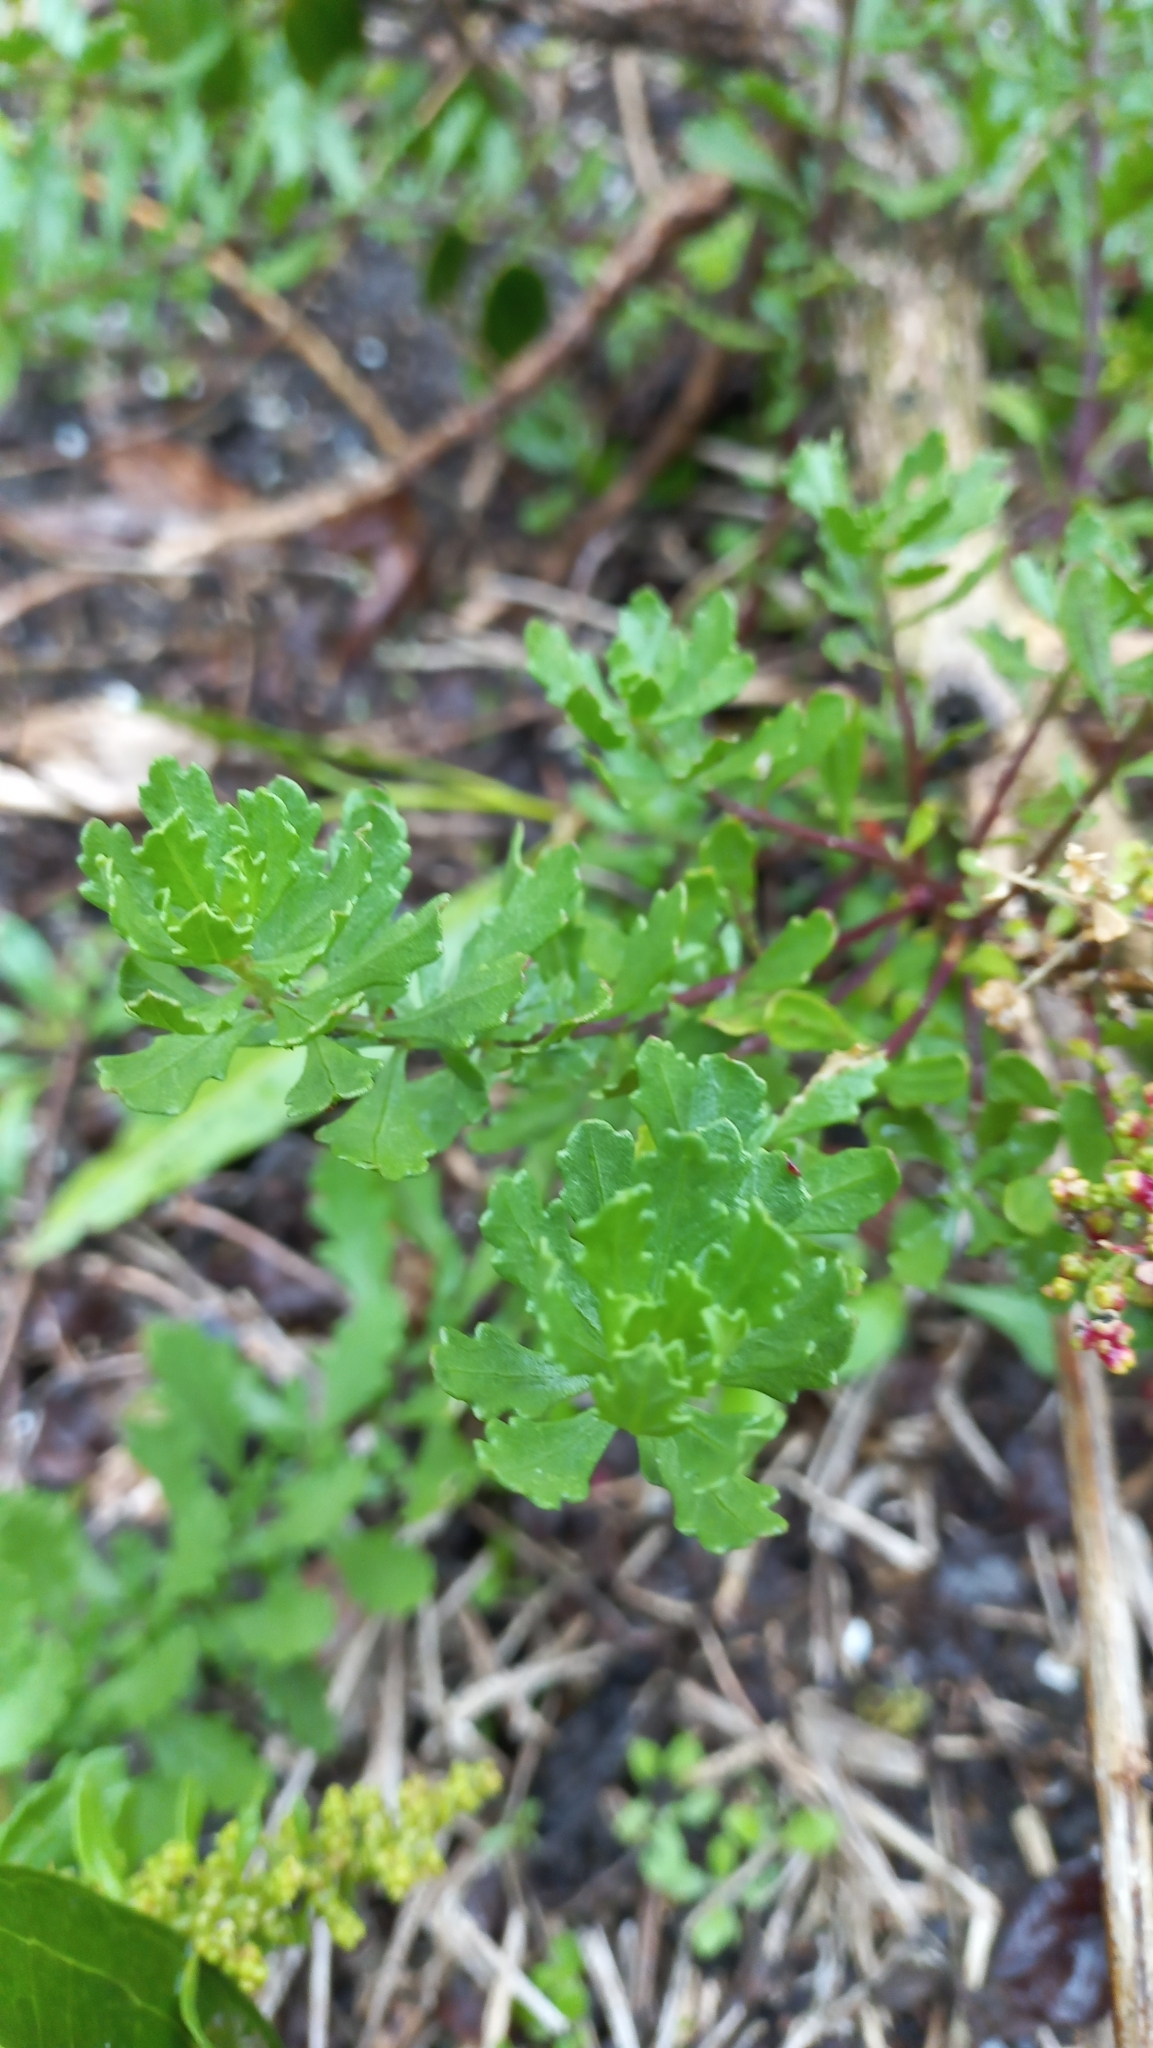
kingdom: Plantae
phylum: Tracheophyta
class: Magnoliopsida
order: Caryophyllales
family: Amaranthaceae
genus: Dysphania
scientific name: Dysphania retusa
